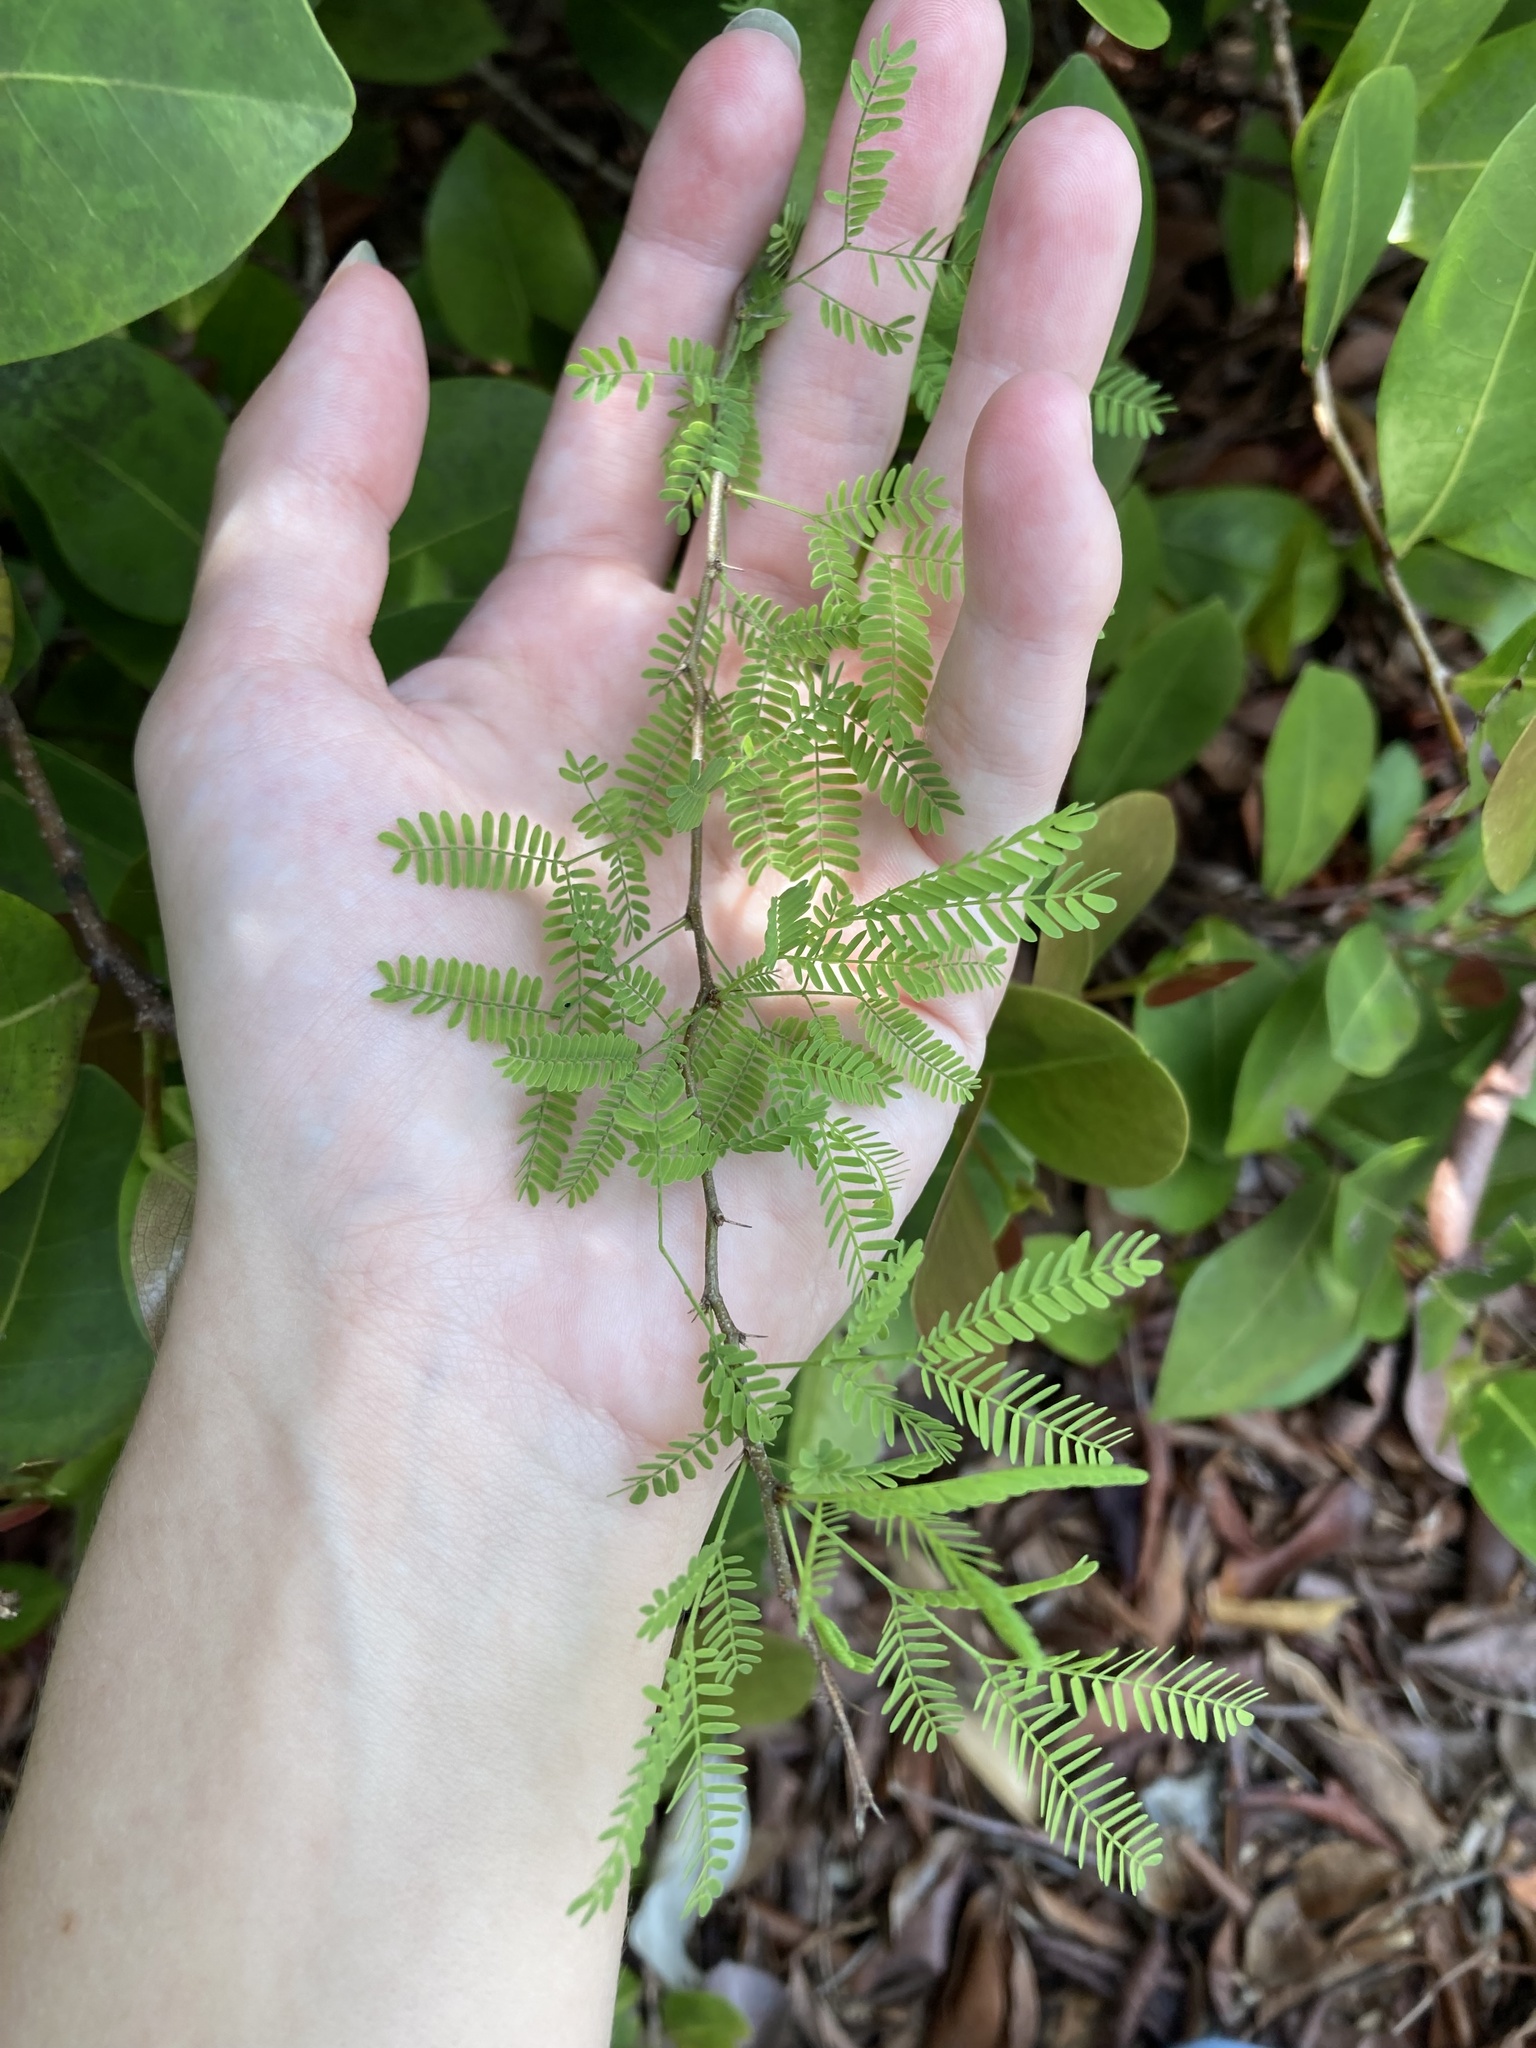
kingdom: Plantae
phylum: Tracheophyta
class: Magnoliopsida
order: Fabales
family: Fabaceae
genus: Vachellia
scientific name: Vachellia farnesiana
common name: Sweet acacia
